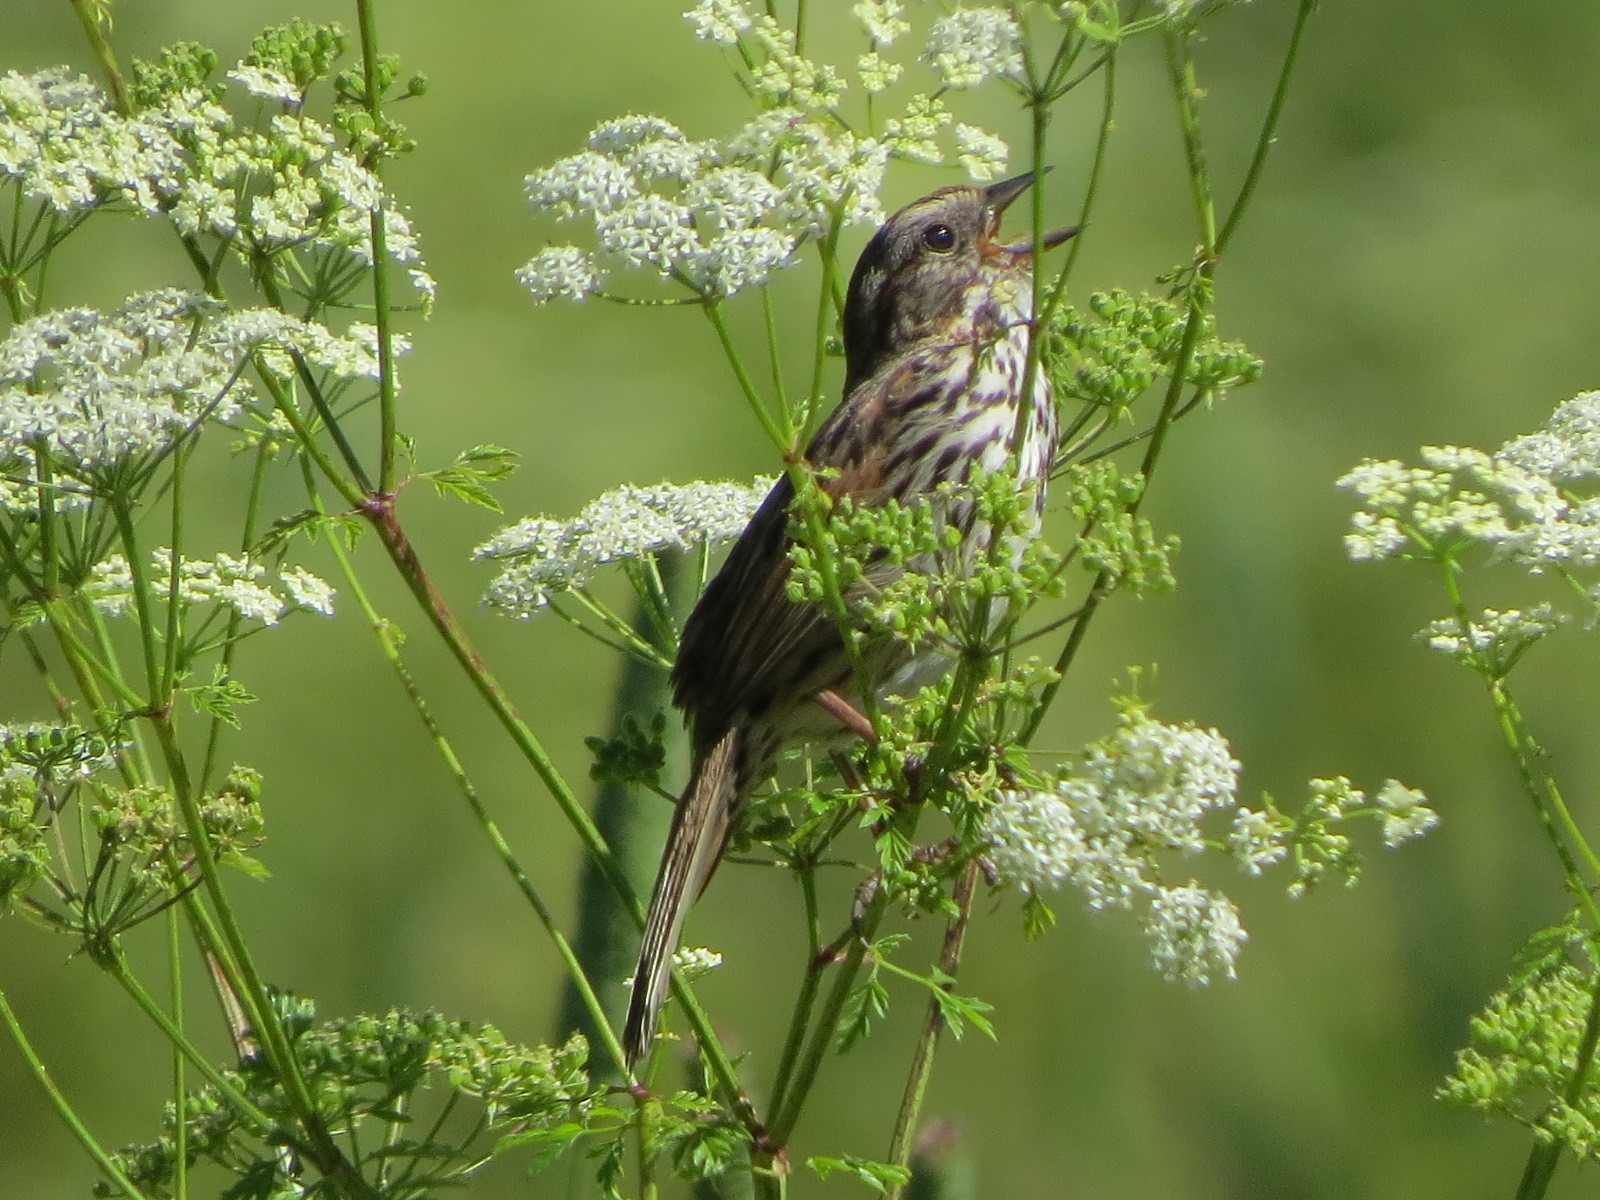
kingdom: Animalia
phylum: Chordata
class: Aves
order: Passeriformes
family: Passerellidae
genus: Melospiza
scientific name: Melospiza melodia
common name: Song sparrow
